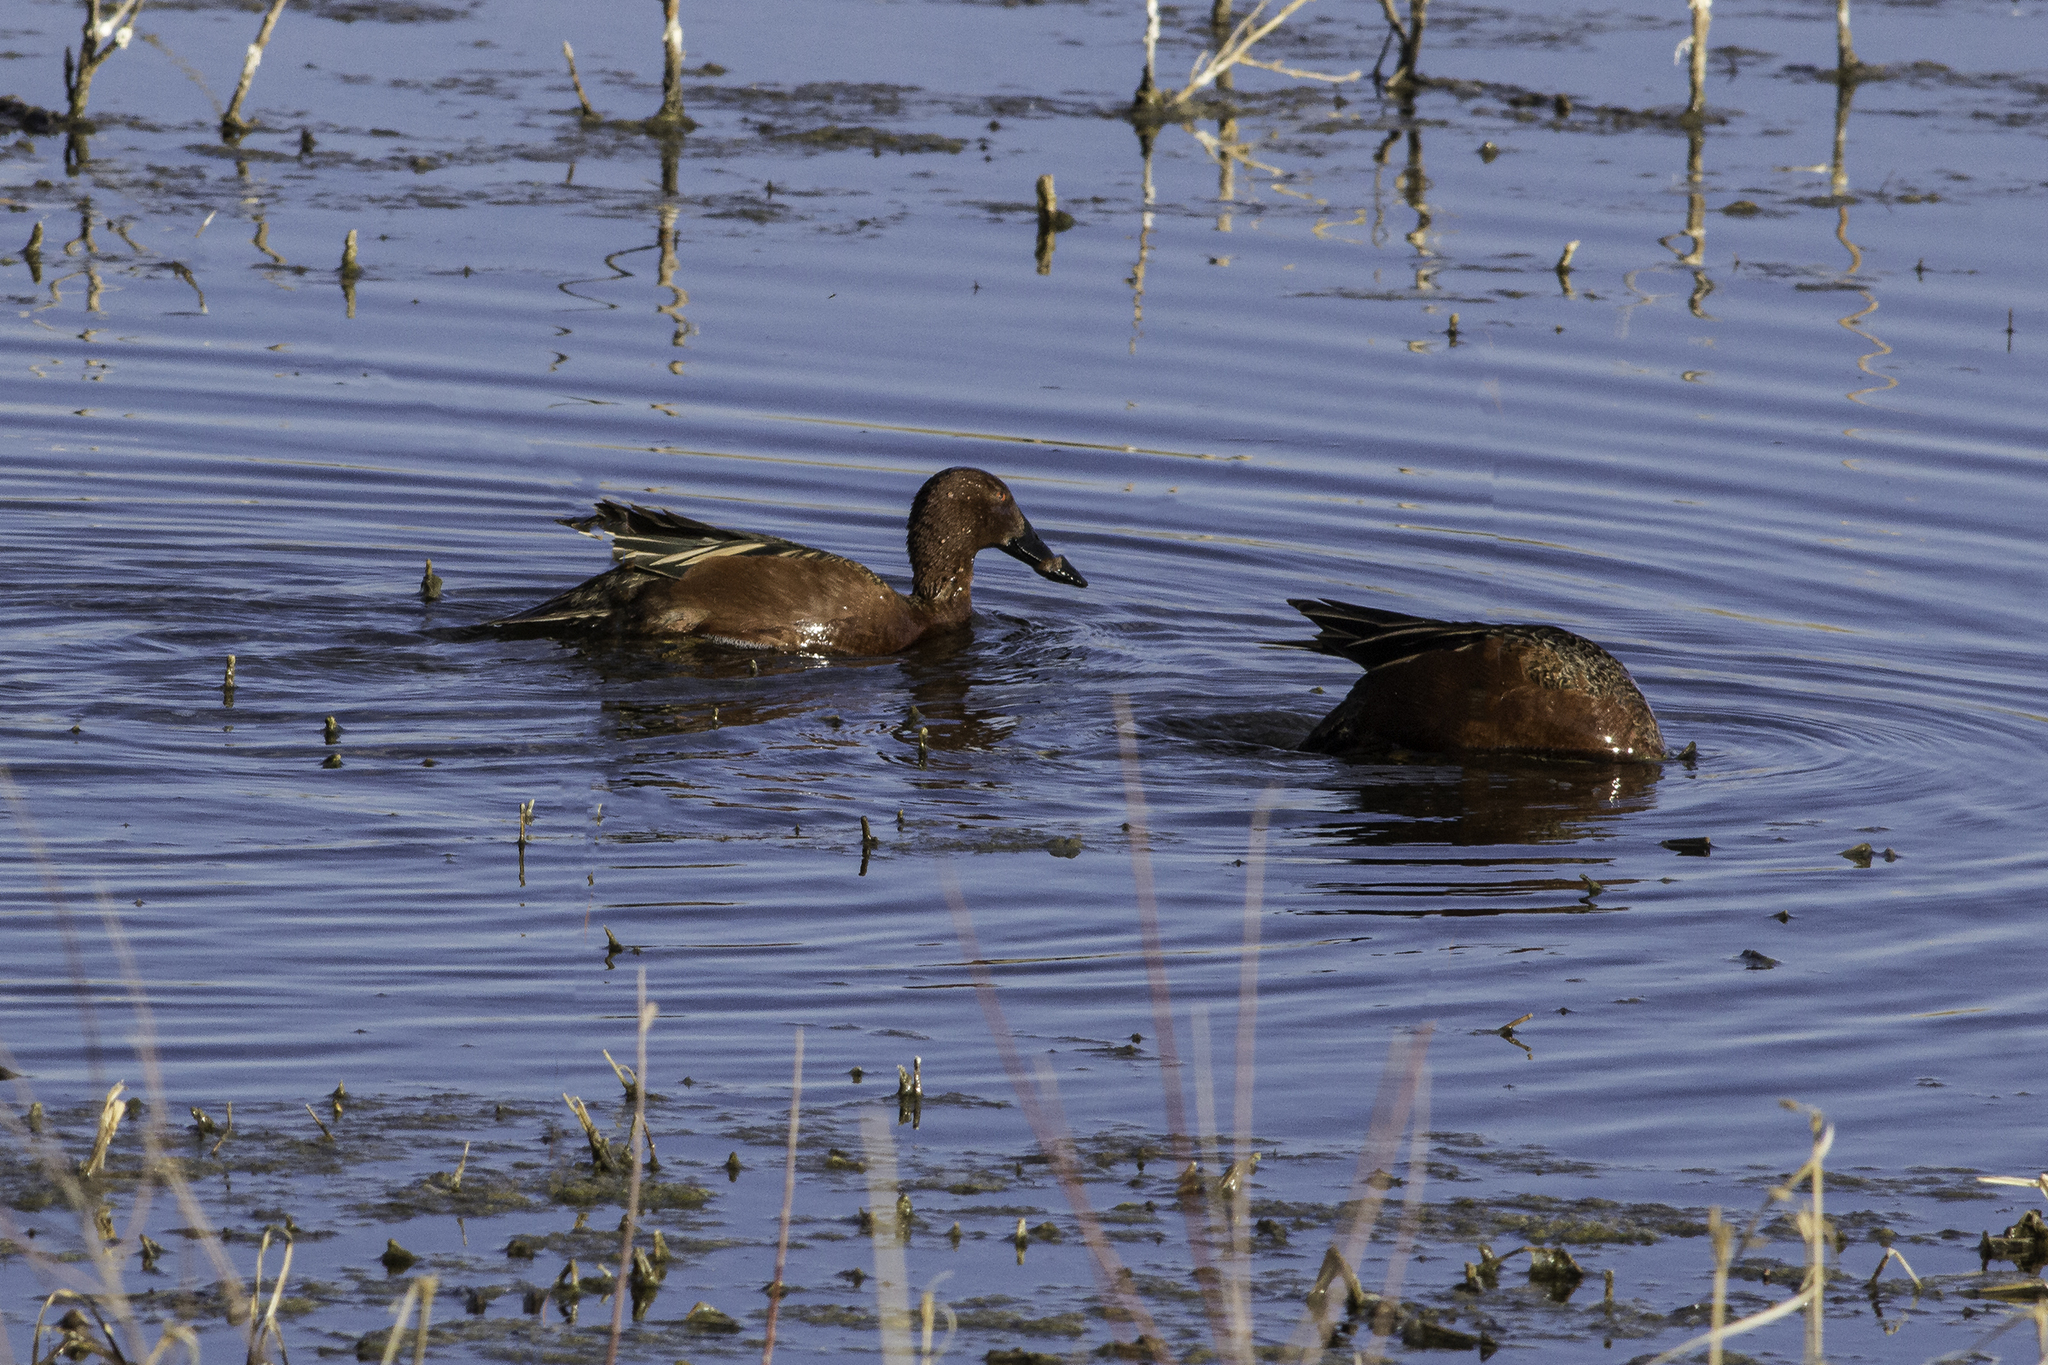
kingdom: Animalia
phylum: Chordata
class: Aves
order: Anseriformes
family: Anatidae
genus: Spatula
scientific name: Spatula cyanoptera
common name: Cinnamon teal
